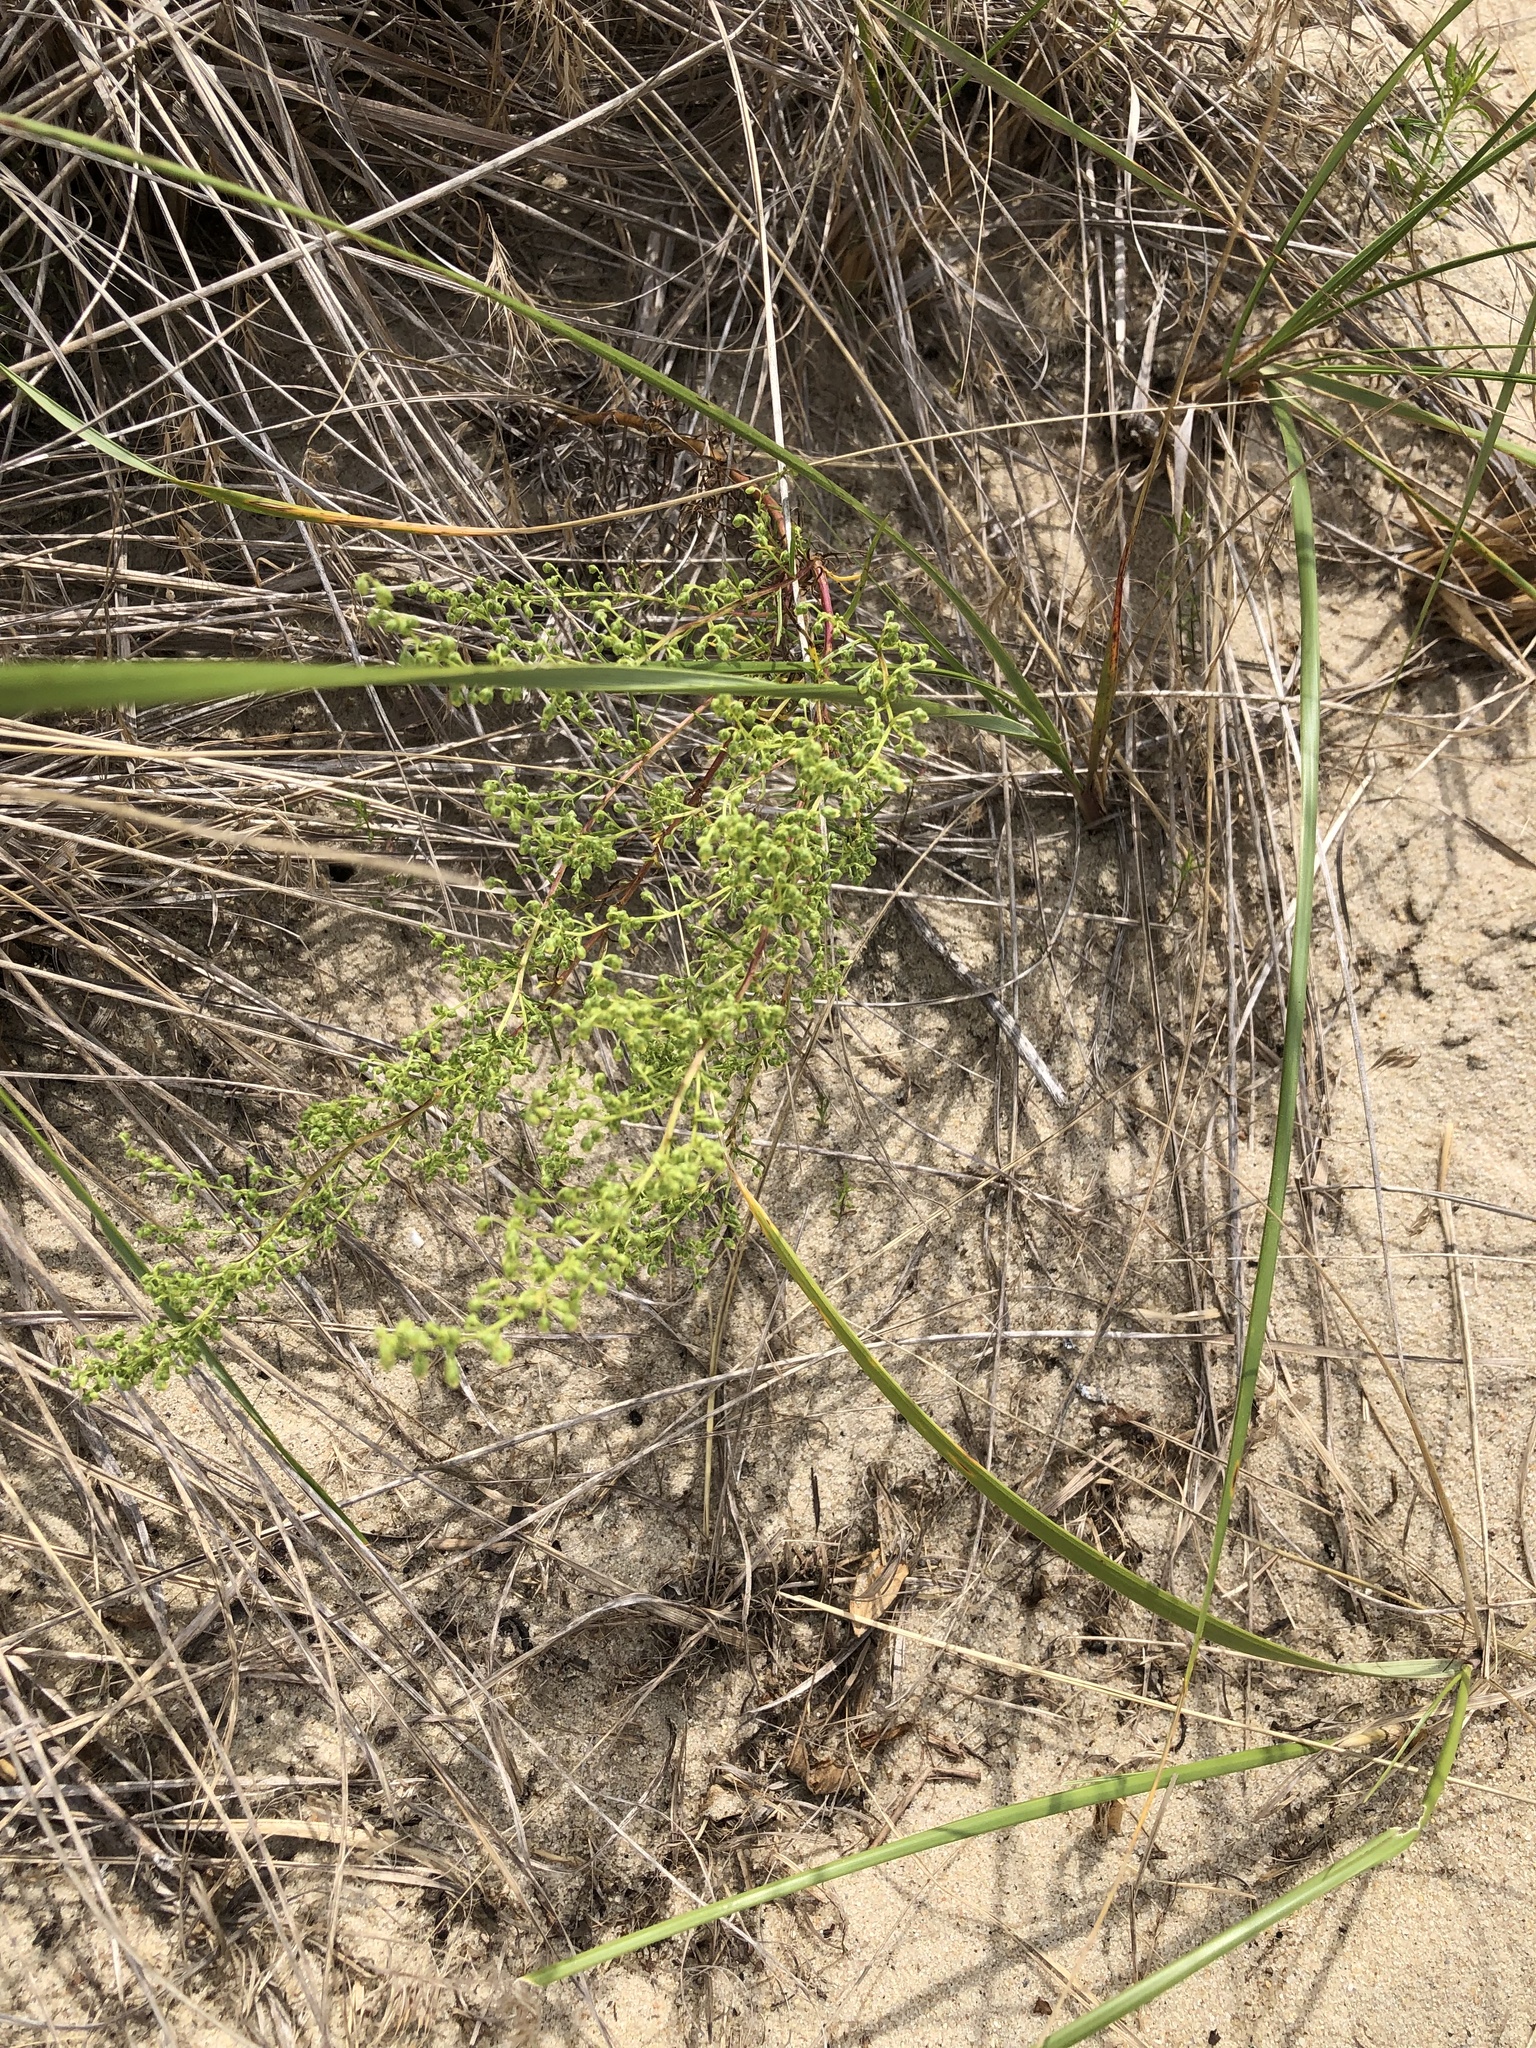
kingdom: Plantae
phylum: Tracheophyta
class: Magnoliopsida
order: Asterales
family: Asteraceae
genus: Artemisia
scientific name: Artemisia campestris
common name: Field wormwood
